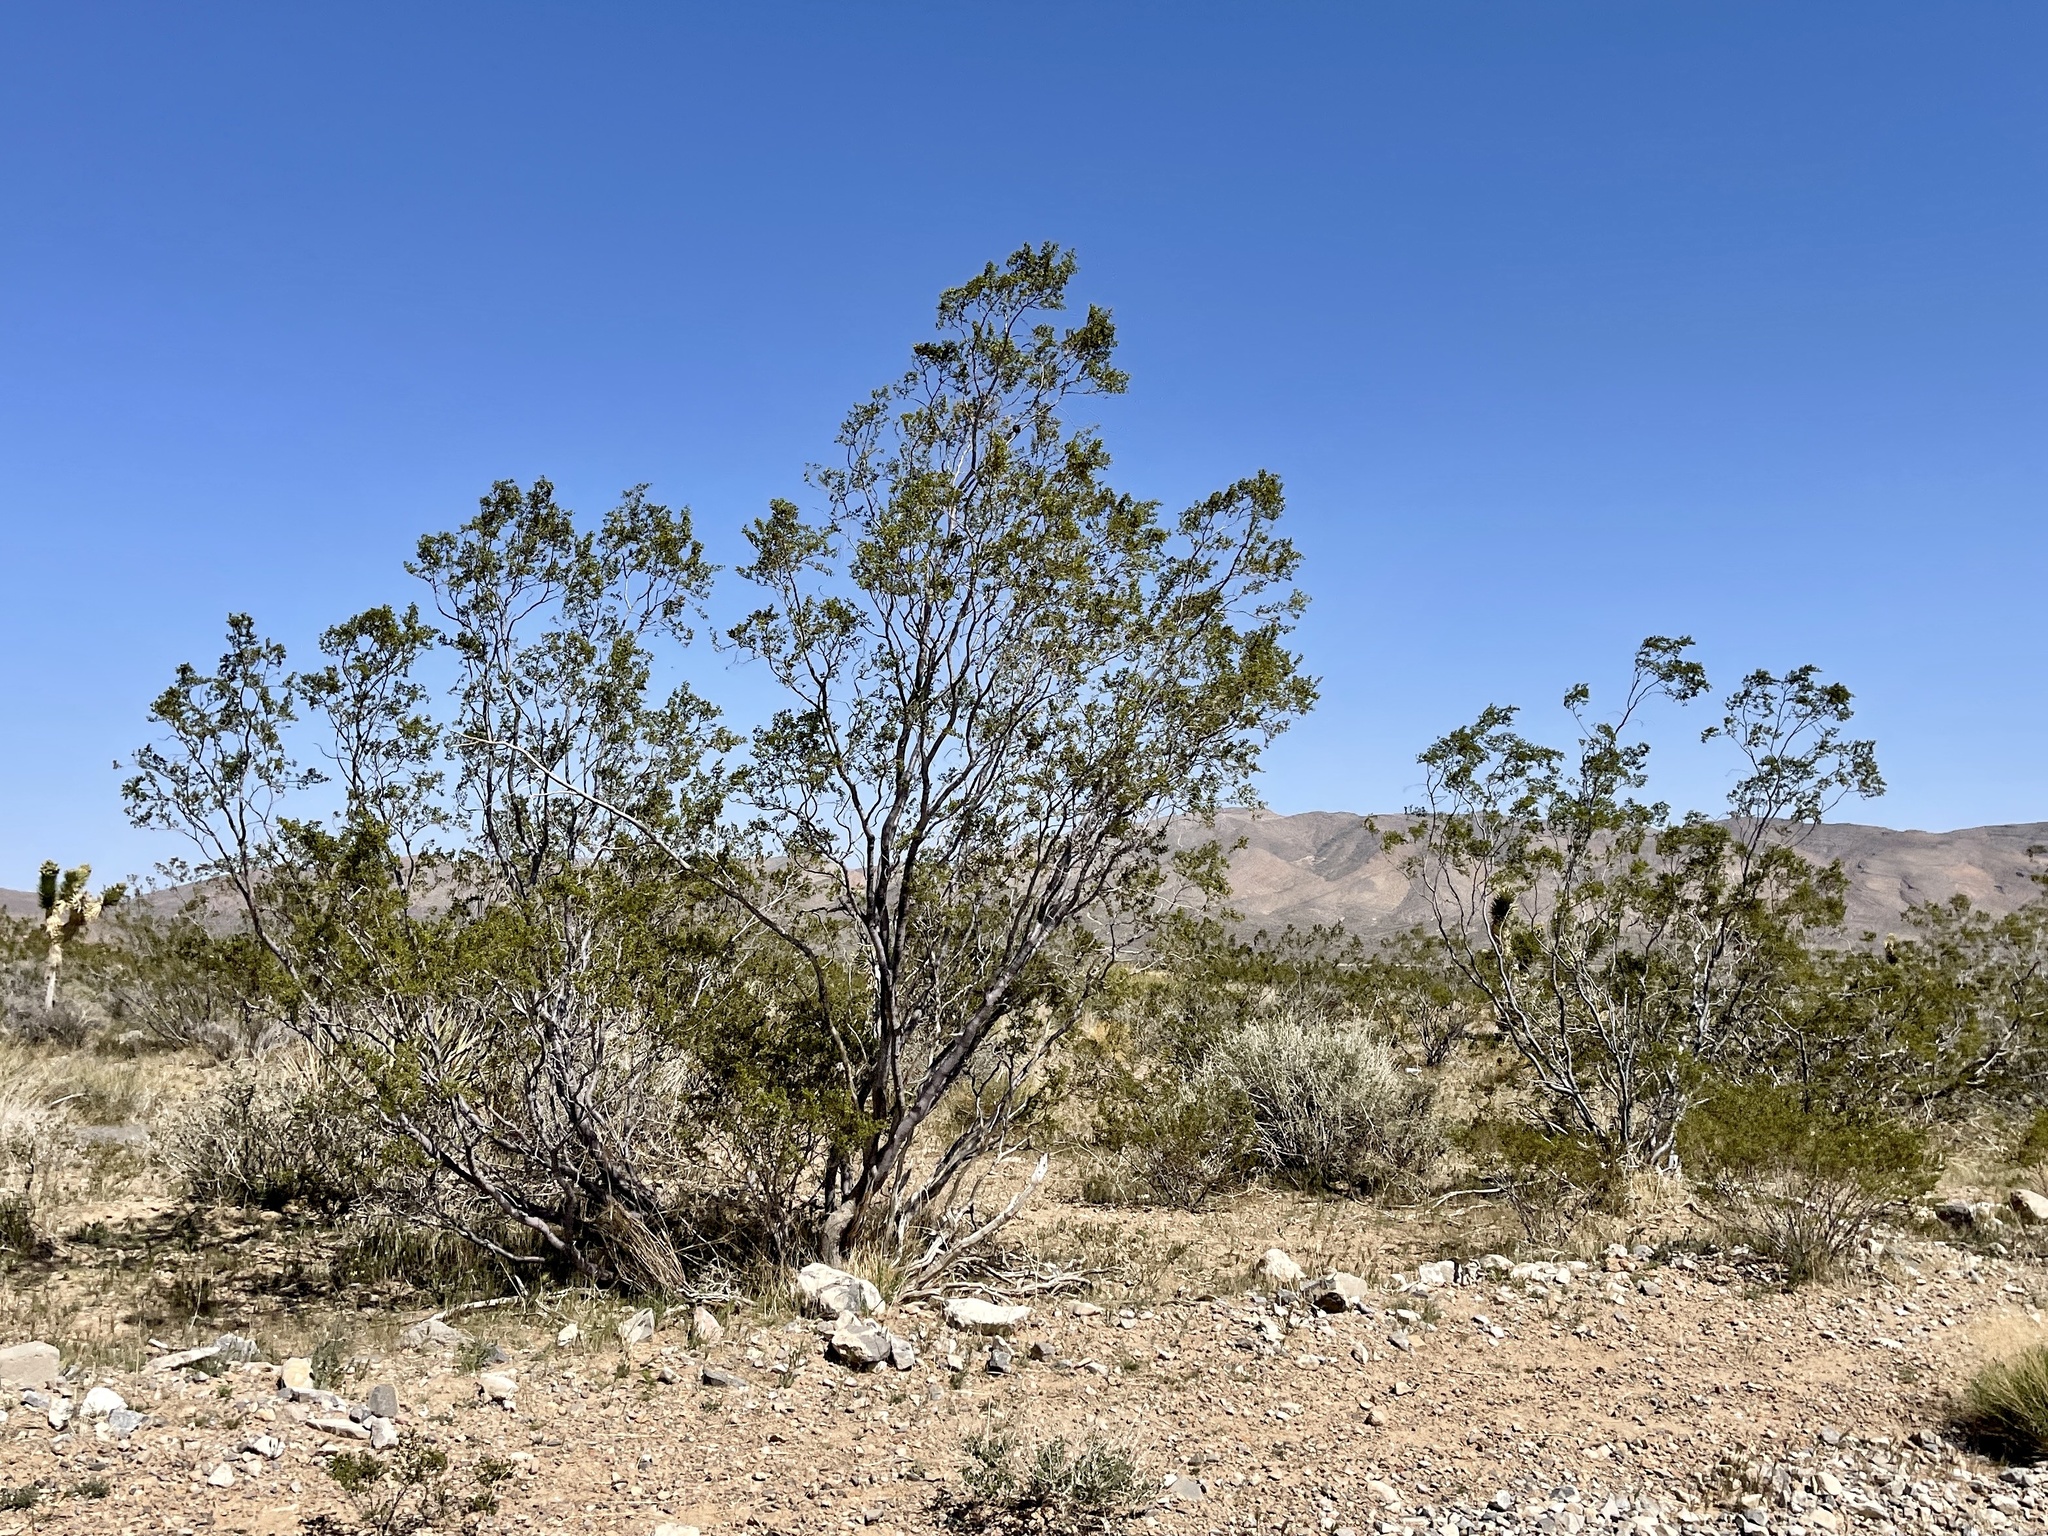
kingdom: Plantae
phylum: Tracheophyta
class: Magnoliopsida
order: Zygophyllales
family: Zygophyllaceae
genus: Larrea
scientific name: Larrea tridentata
